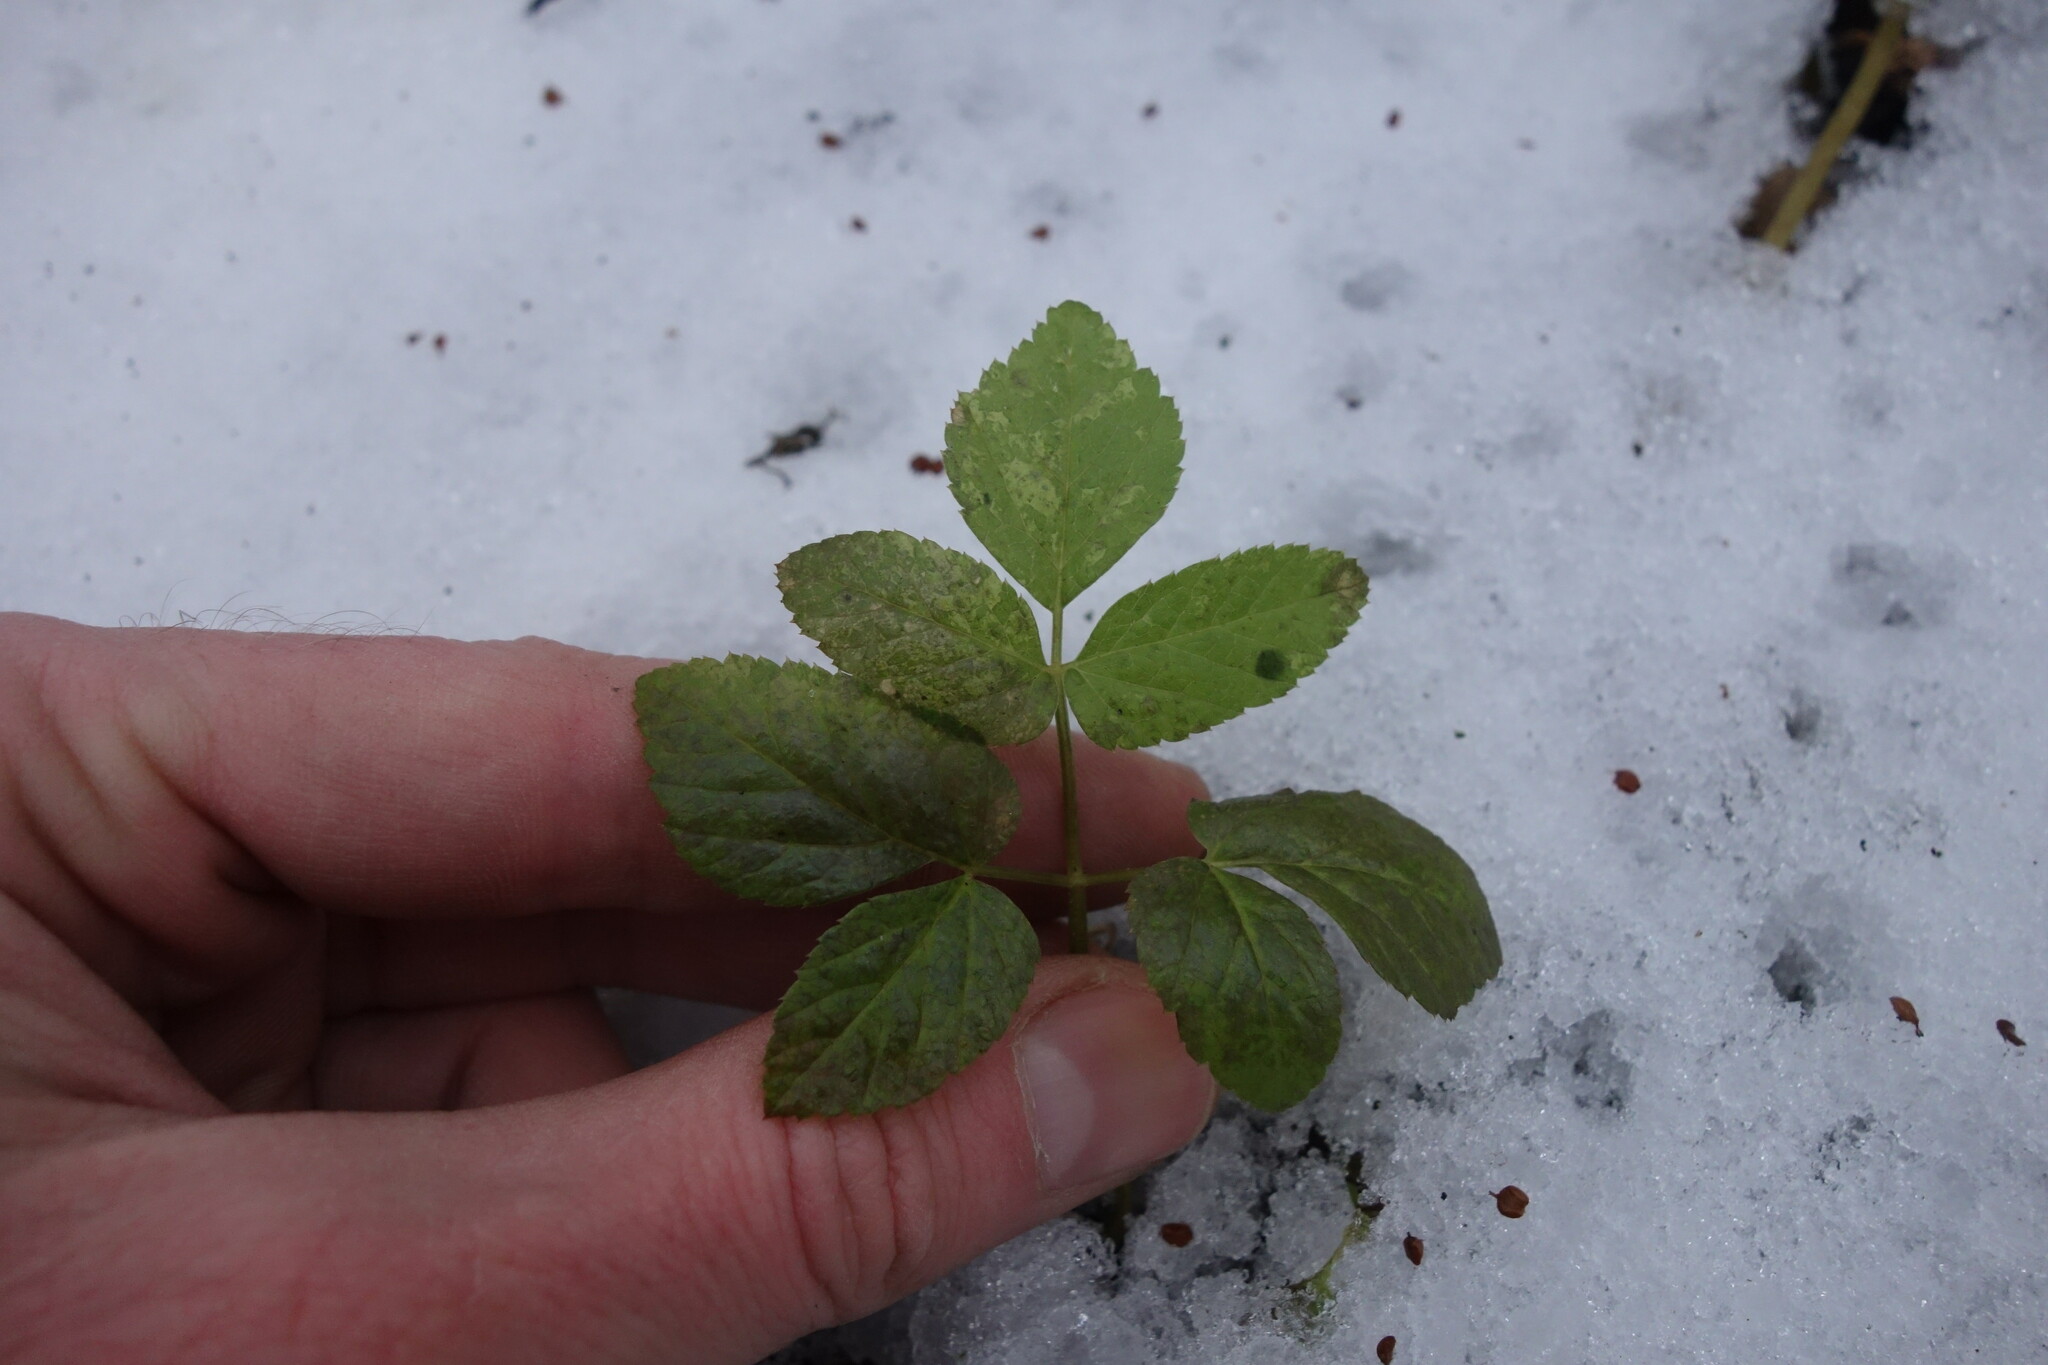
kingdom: Plantae
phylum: Tracheophyta
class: Magnoliopsida
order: Apiales
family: Apiaceae
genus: Aegopodium
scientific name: Aegopodium podagraria
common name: Ground-elder
